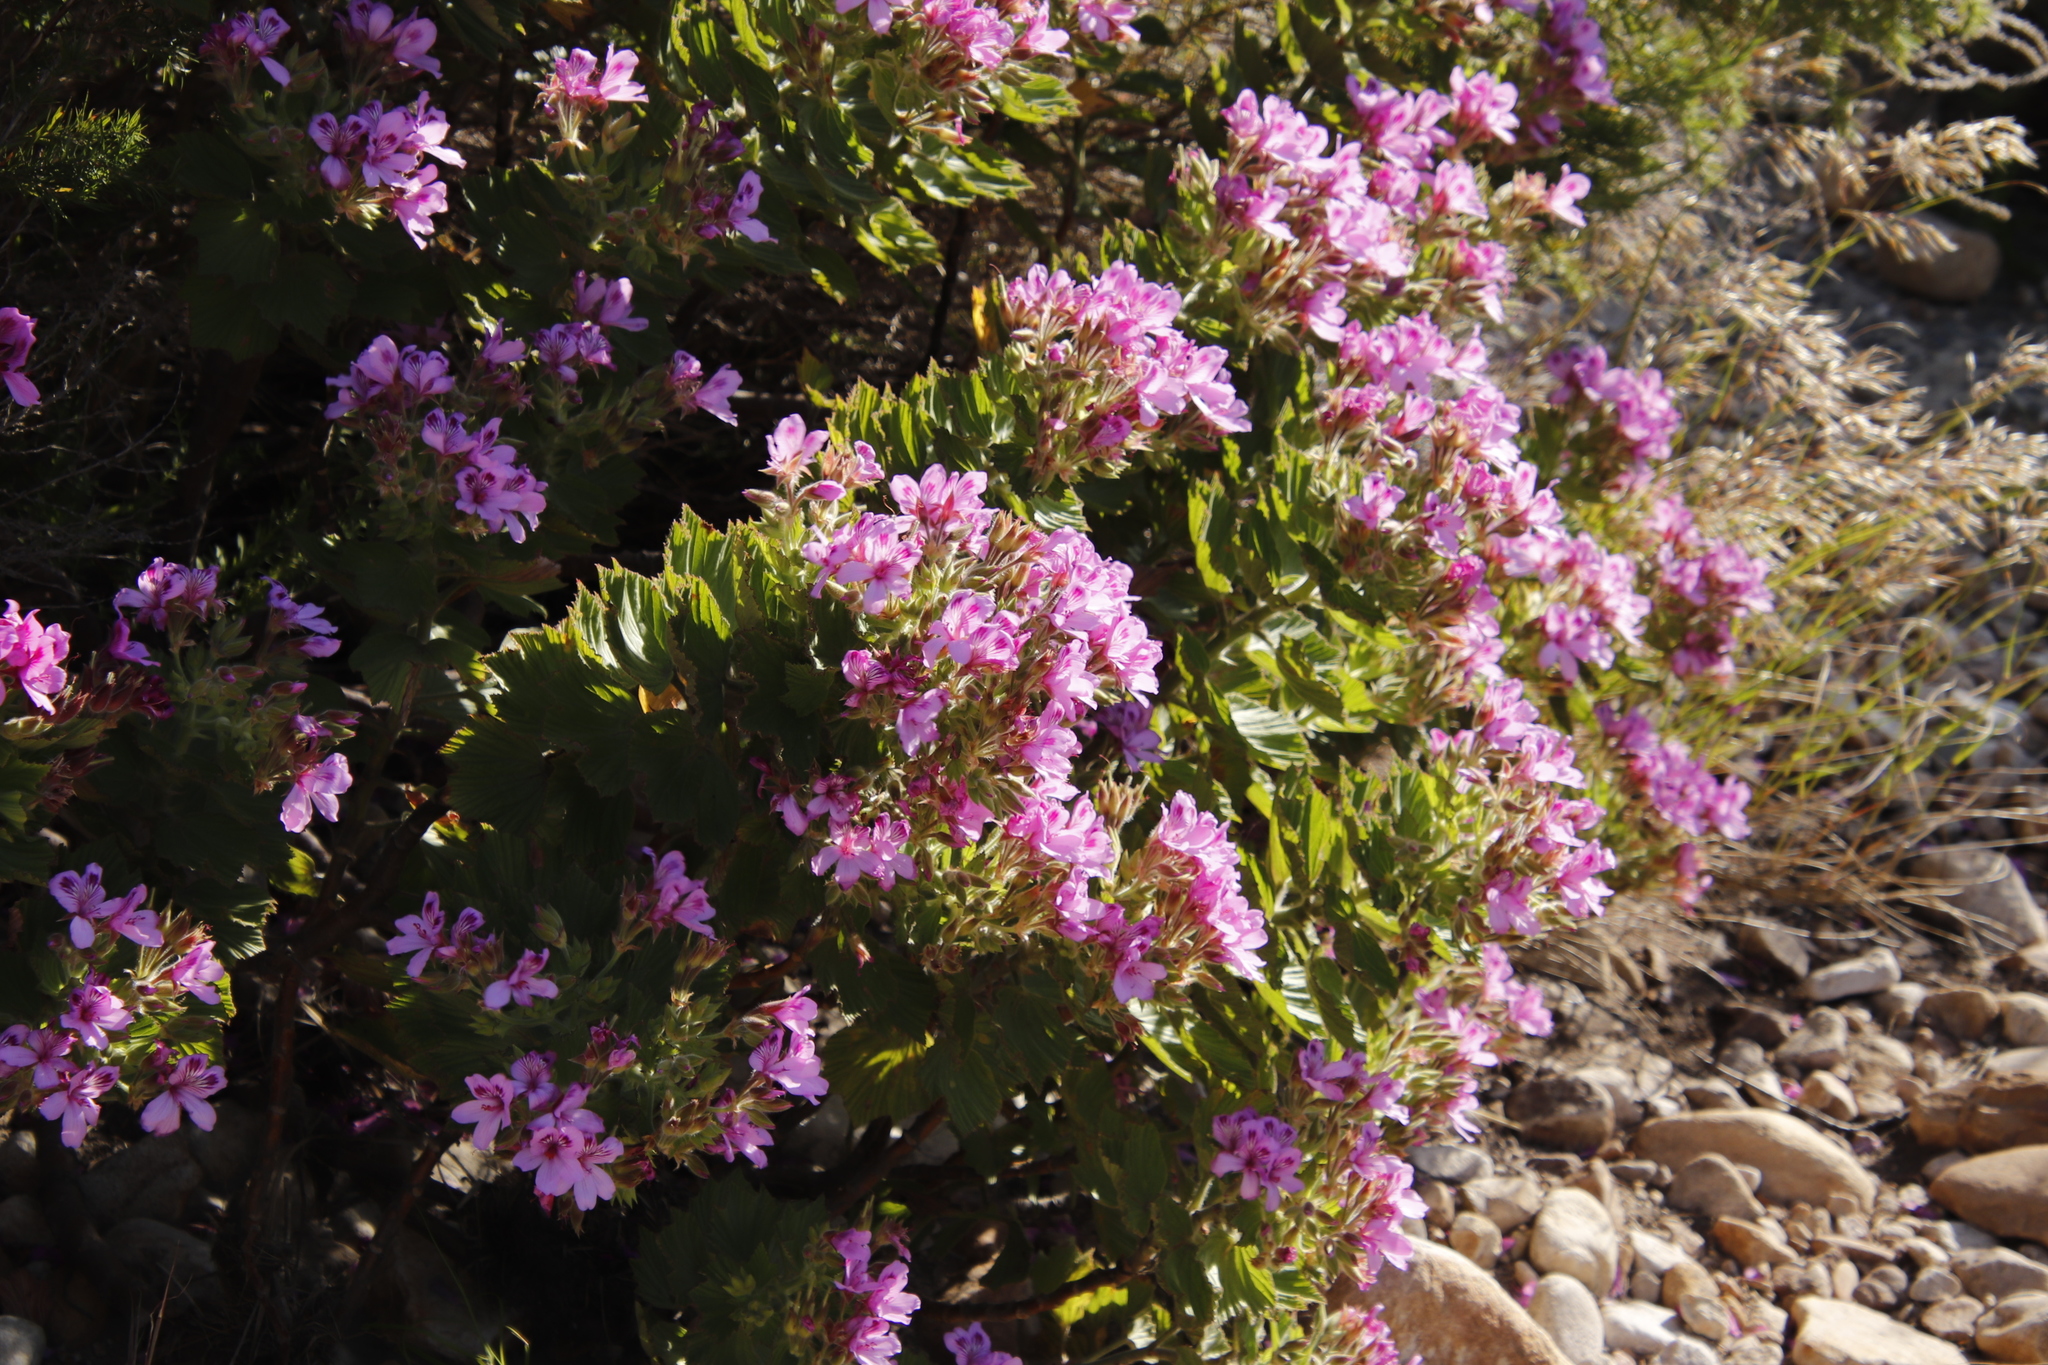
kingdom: Plantae
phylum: Tracheophyta
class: Magnoliopsida
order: Geraniales
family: Geraniaceae
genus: Pelargonium
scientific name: Pelargonium cucullatum
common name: Tree pelargonium
